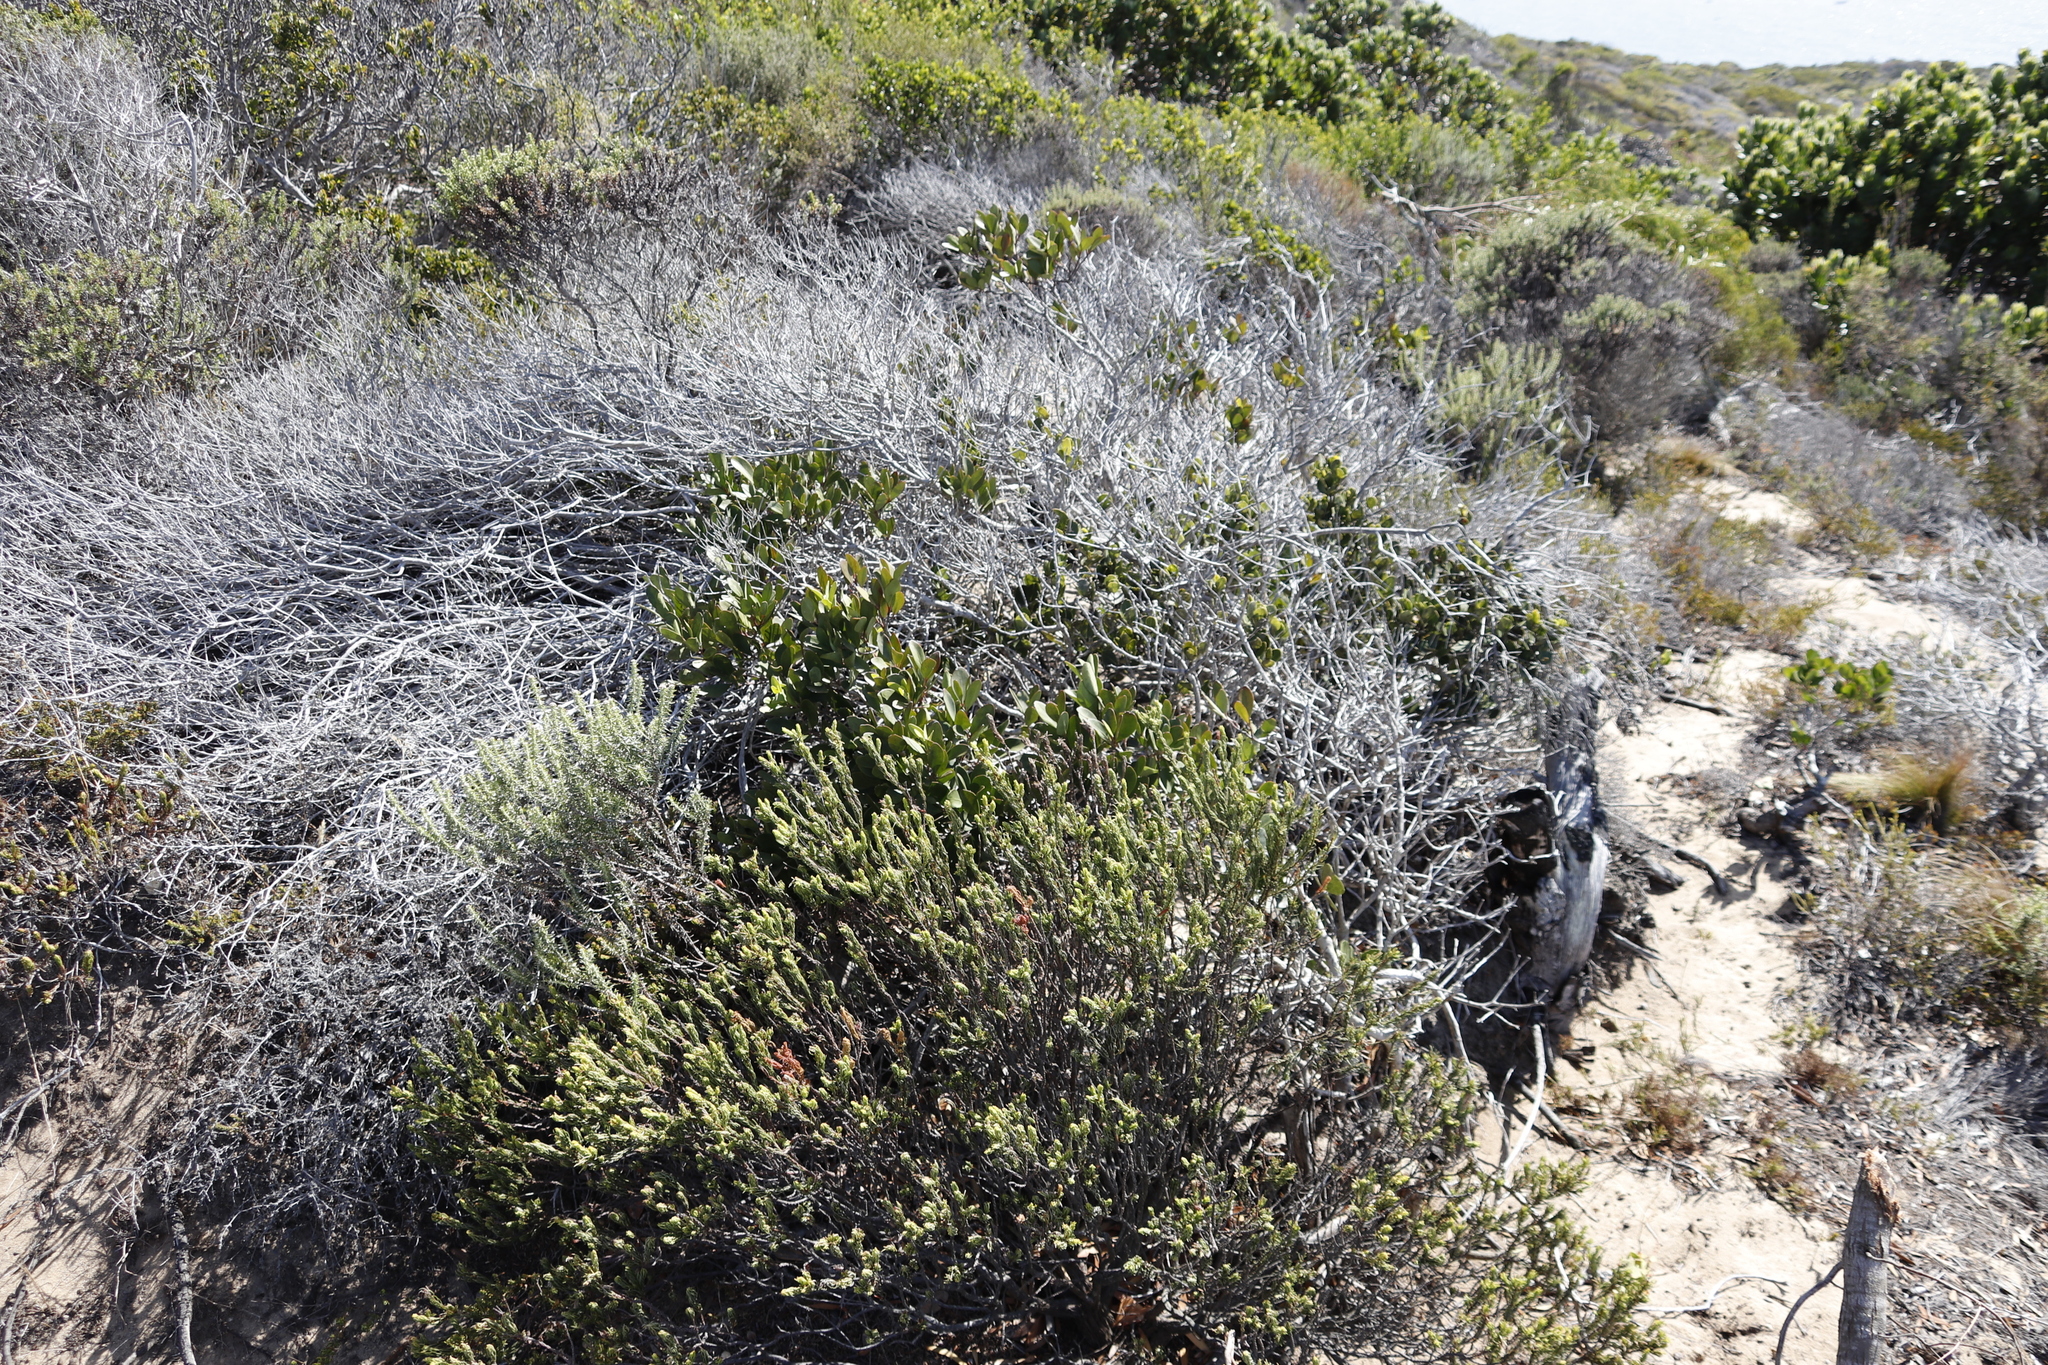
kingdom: Plantae
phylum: Tracheophyta
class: Magnoliopsida
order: Celastrales
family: Celastraceae
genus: Pterocelastrus
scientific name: Pterocelastrus tricuspidatus
